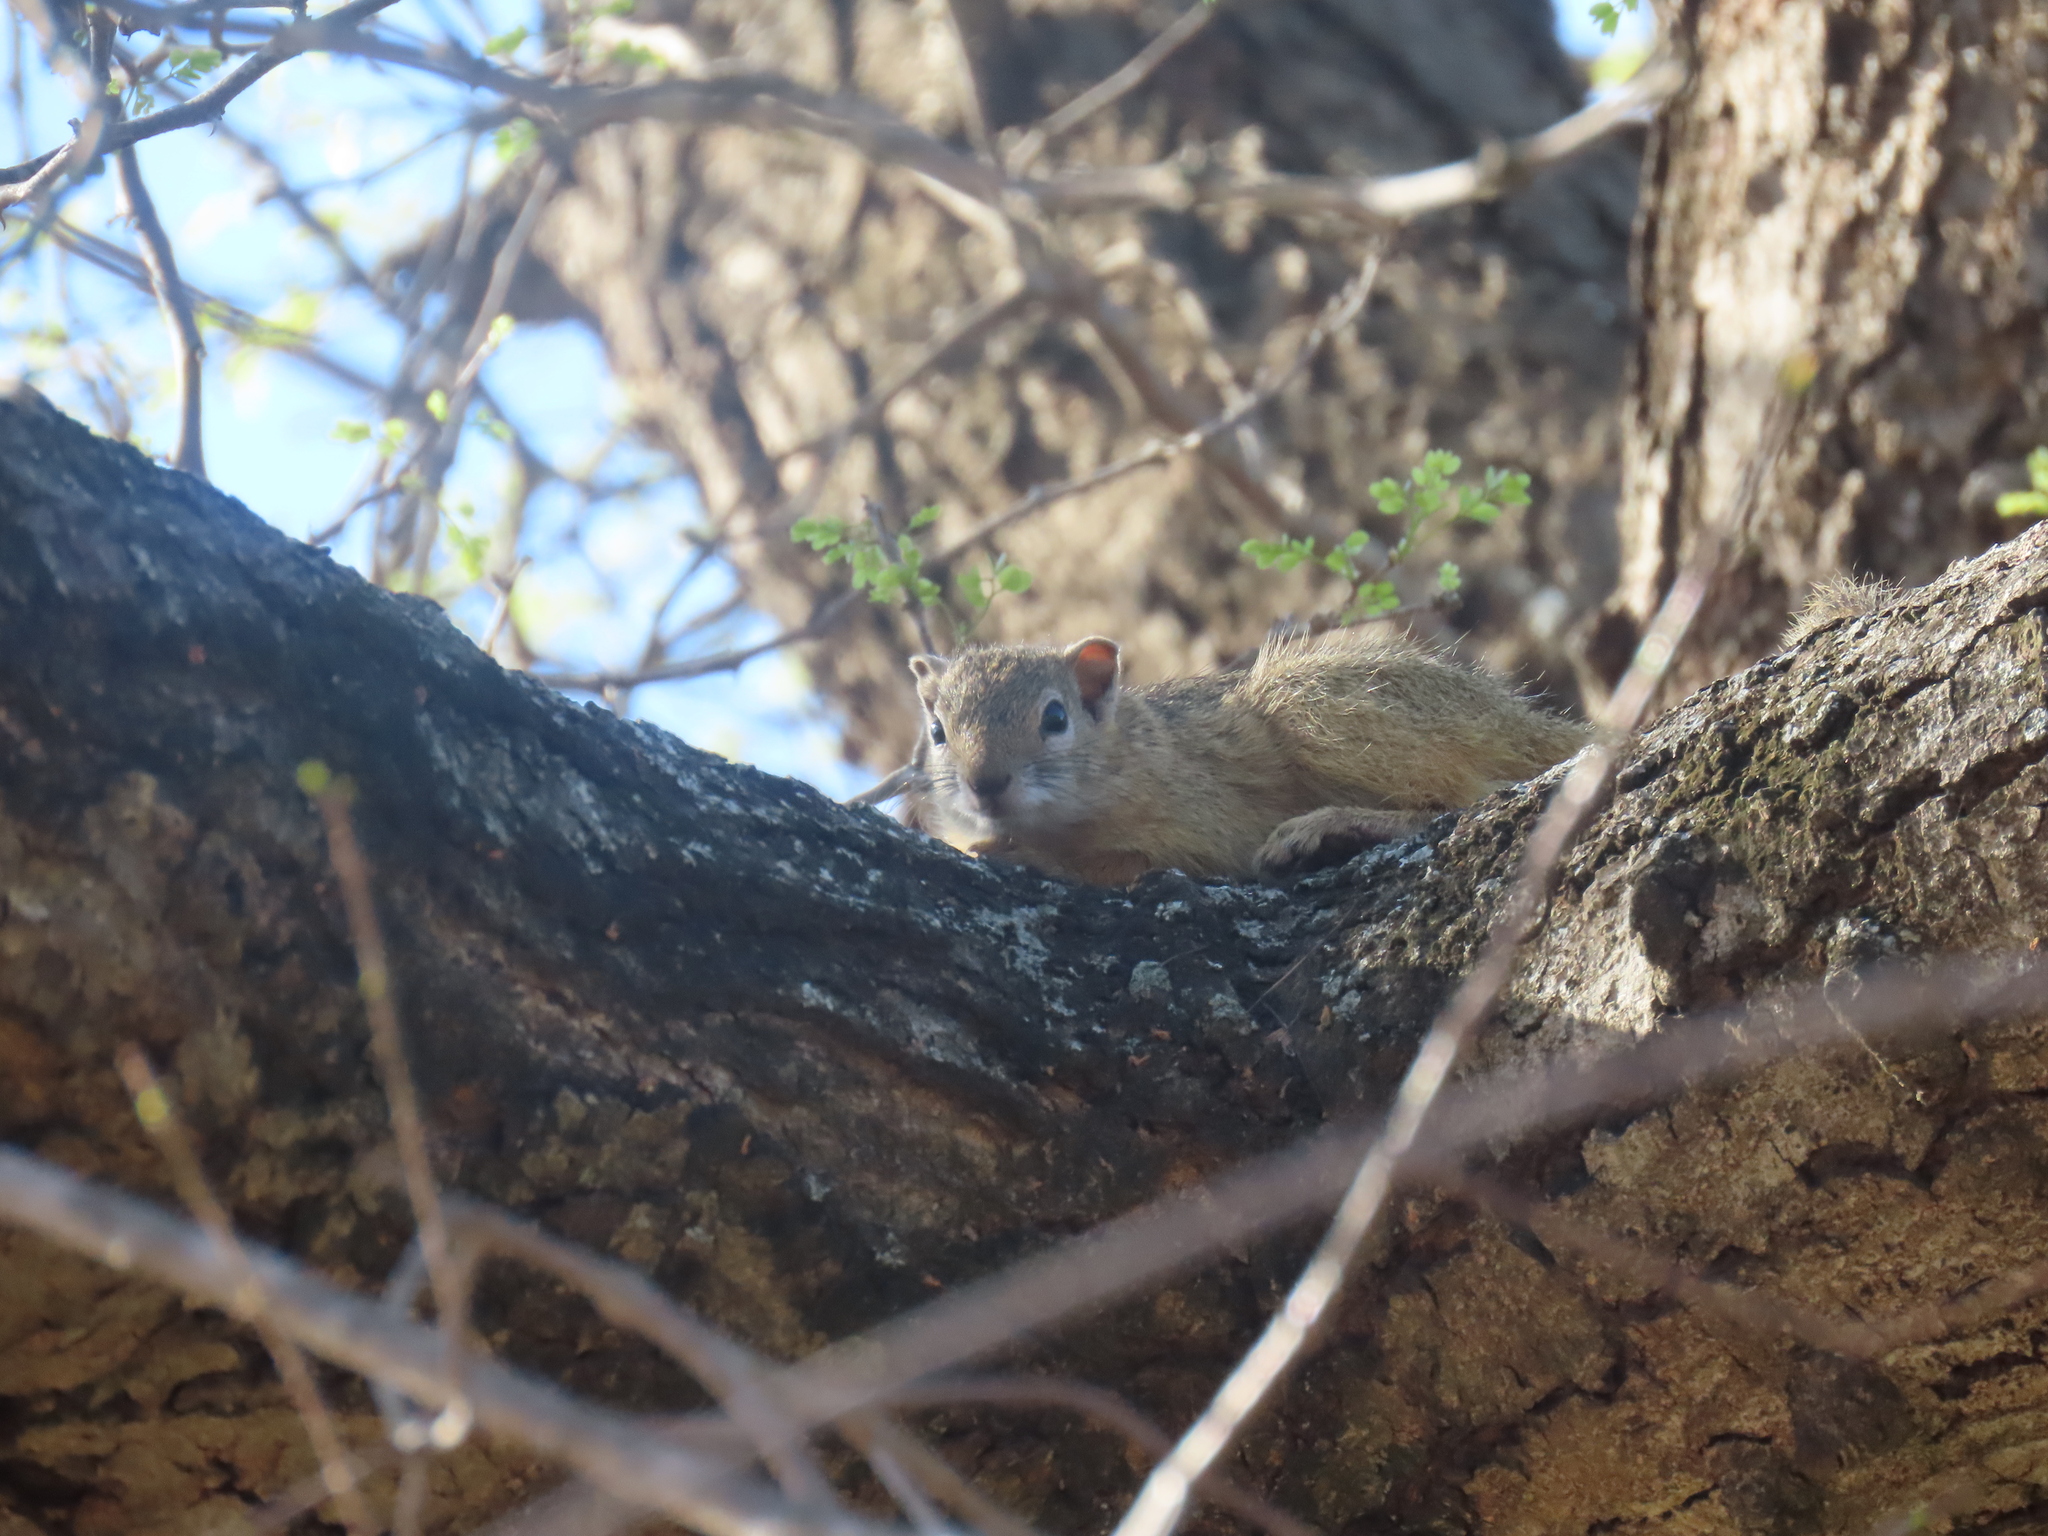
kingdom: Animalia
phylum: Chordata
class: Mammalia
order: Rodentia
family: Sciuridae
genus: Paraxerus
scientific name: Paraxerus cepapi
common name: Smith's bush squirrel
